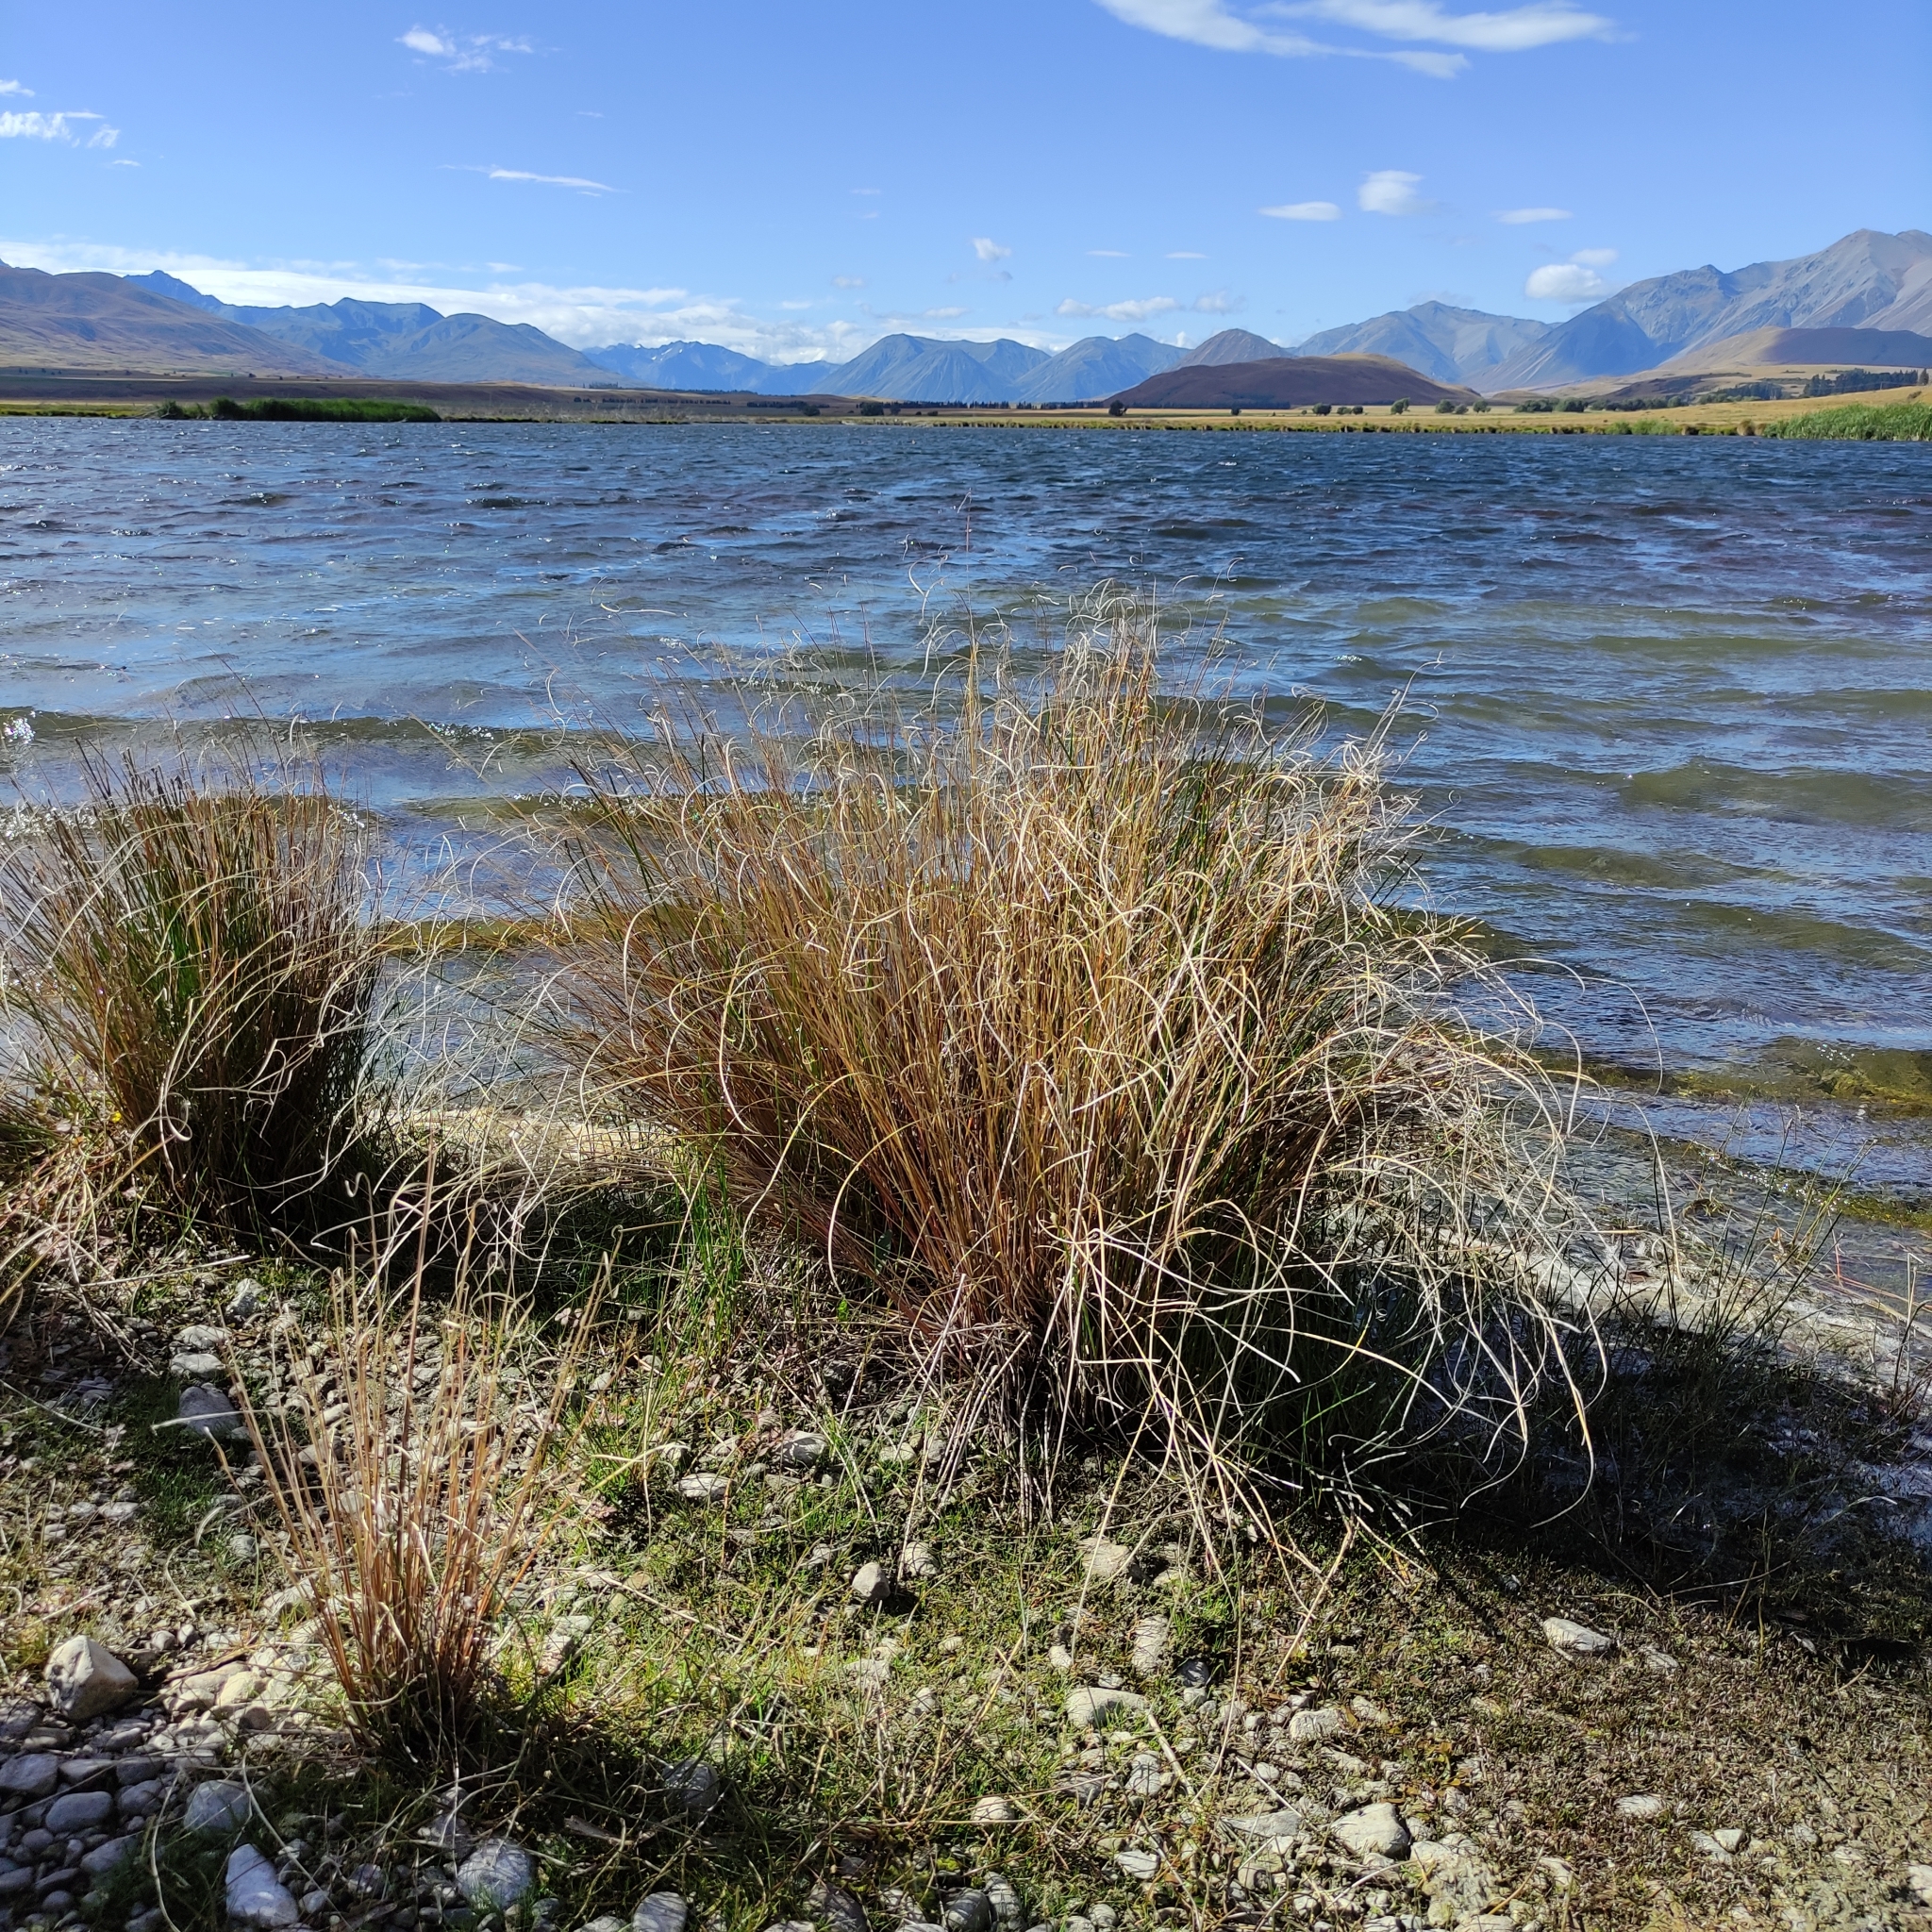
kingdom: Plantae
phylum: Tracheophyta
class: Liliopsida
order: Poales
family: Cyperaceae
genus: Carex
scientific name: Carex buchananii
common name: Leatherleaf sedge
